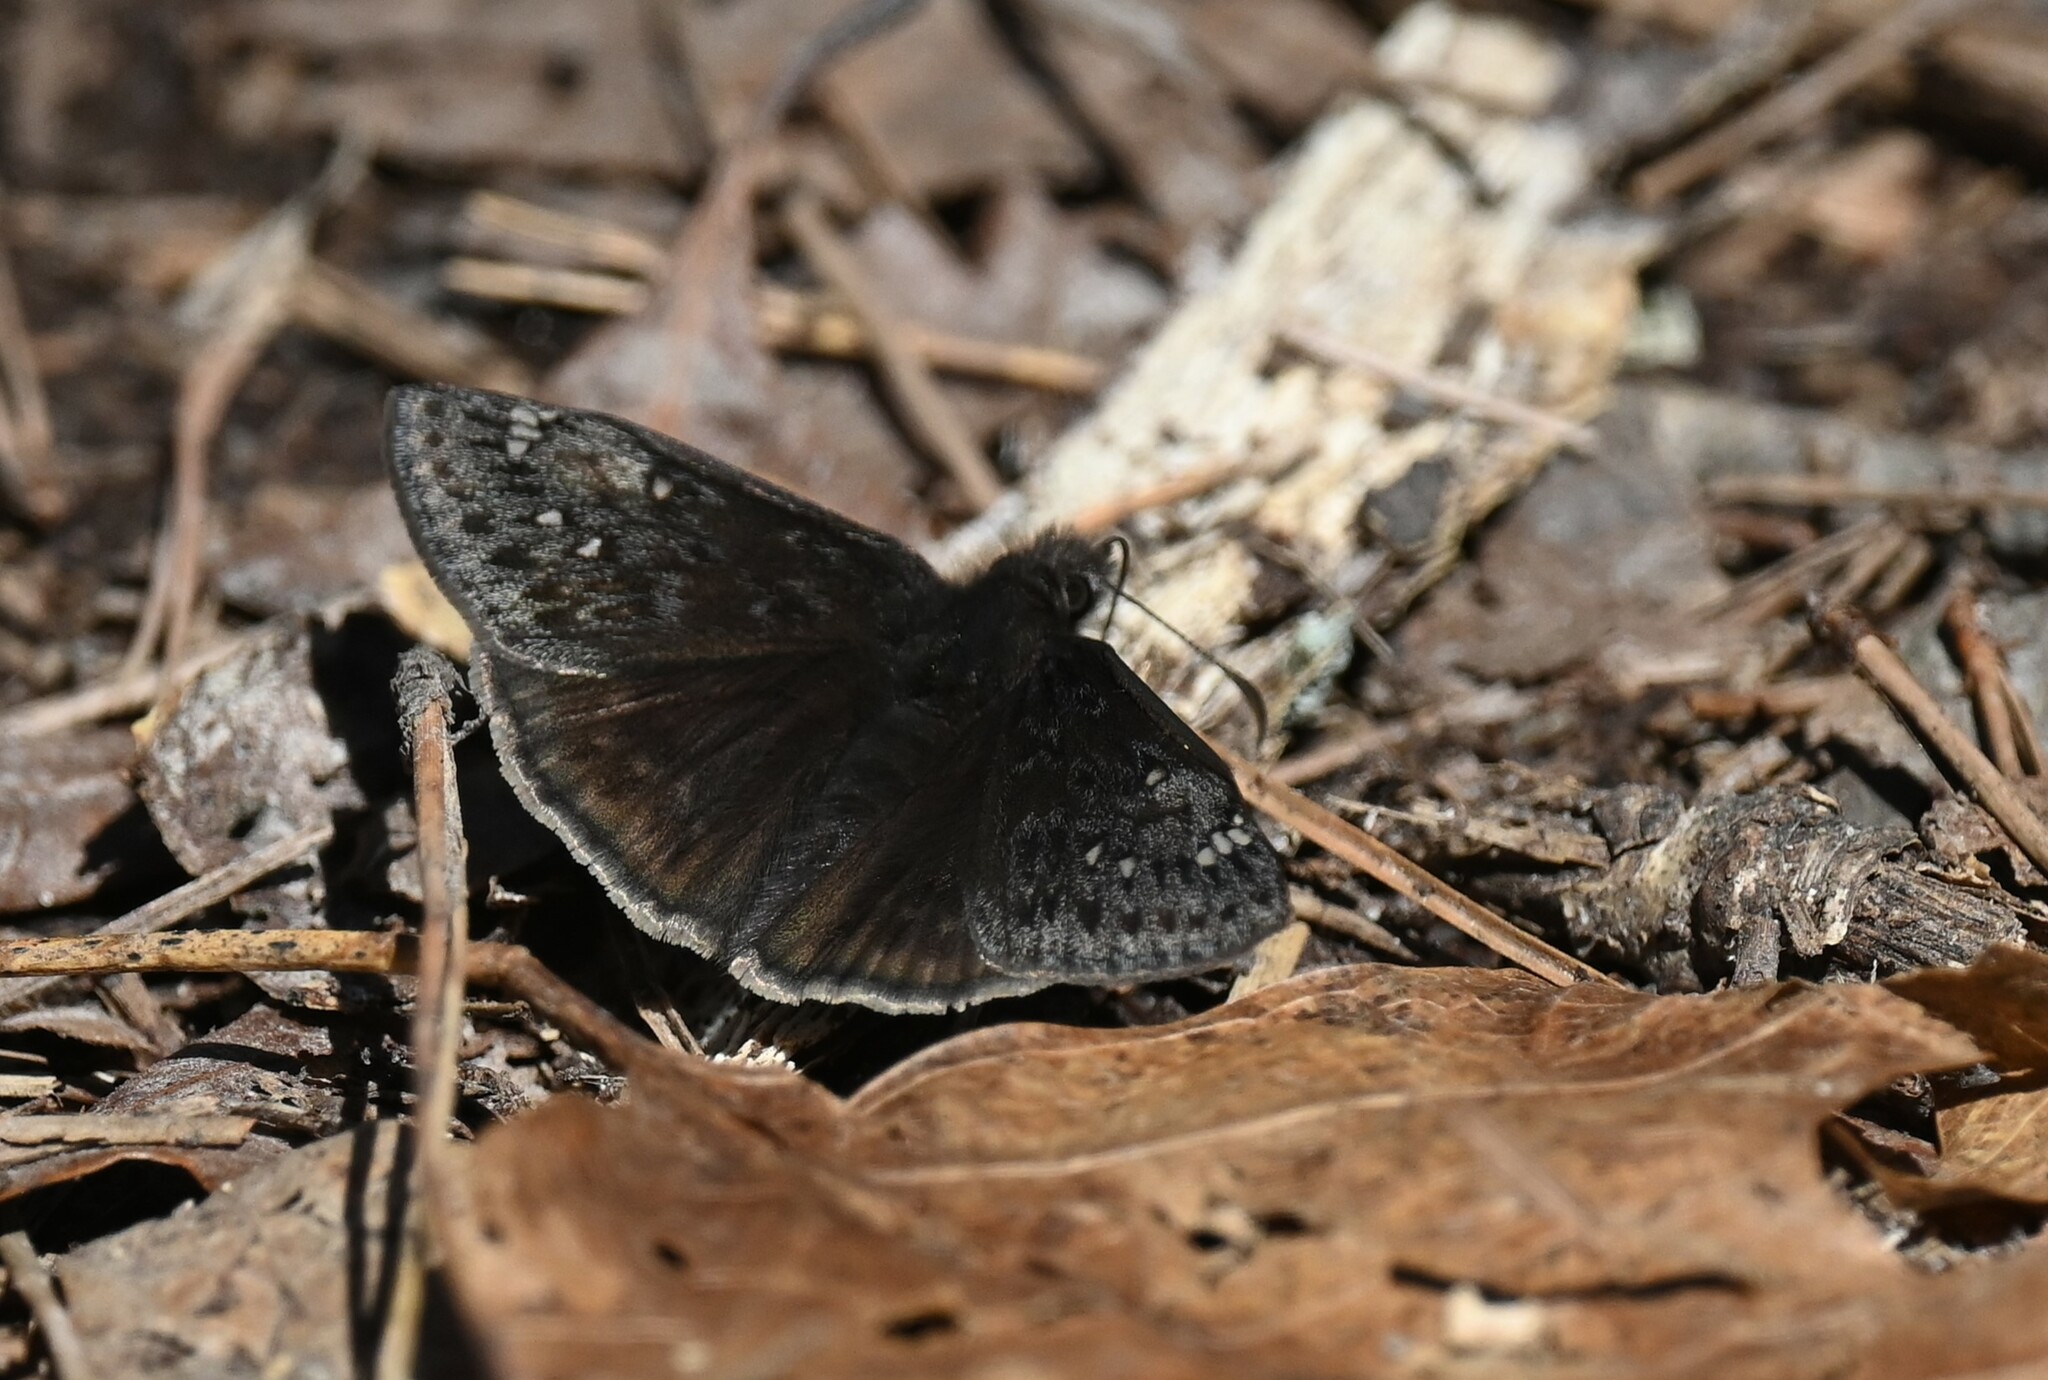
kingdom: Animalia
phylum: Arthropoda
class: Insecta
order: Lepidoptera
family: Hesperiidae
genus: Erynnis
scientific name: Erynnis juvenalis
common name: Juvenal's duskywing
